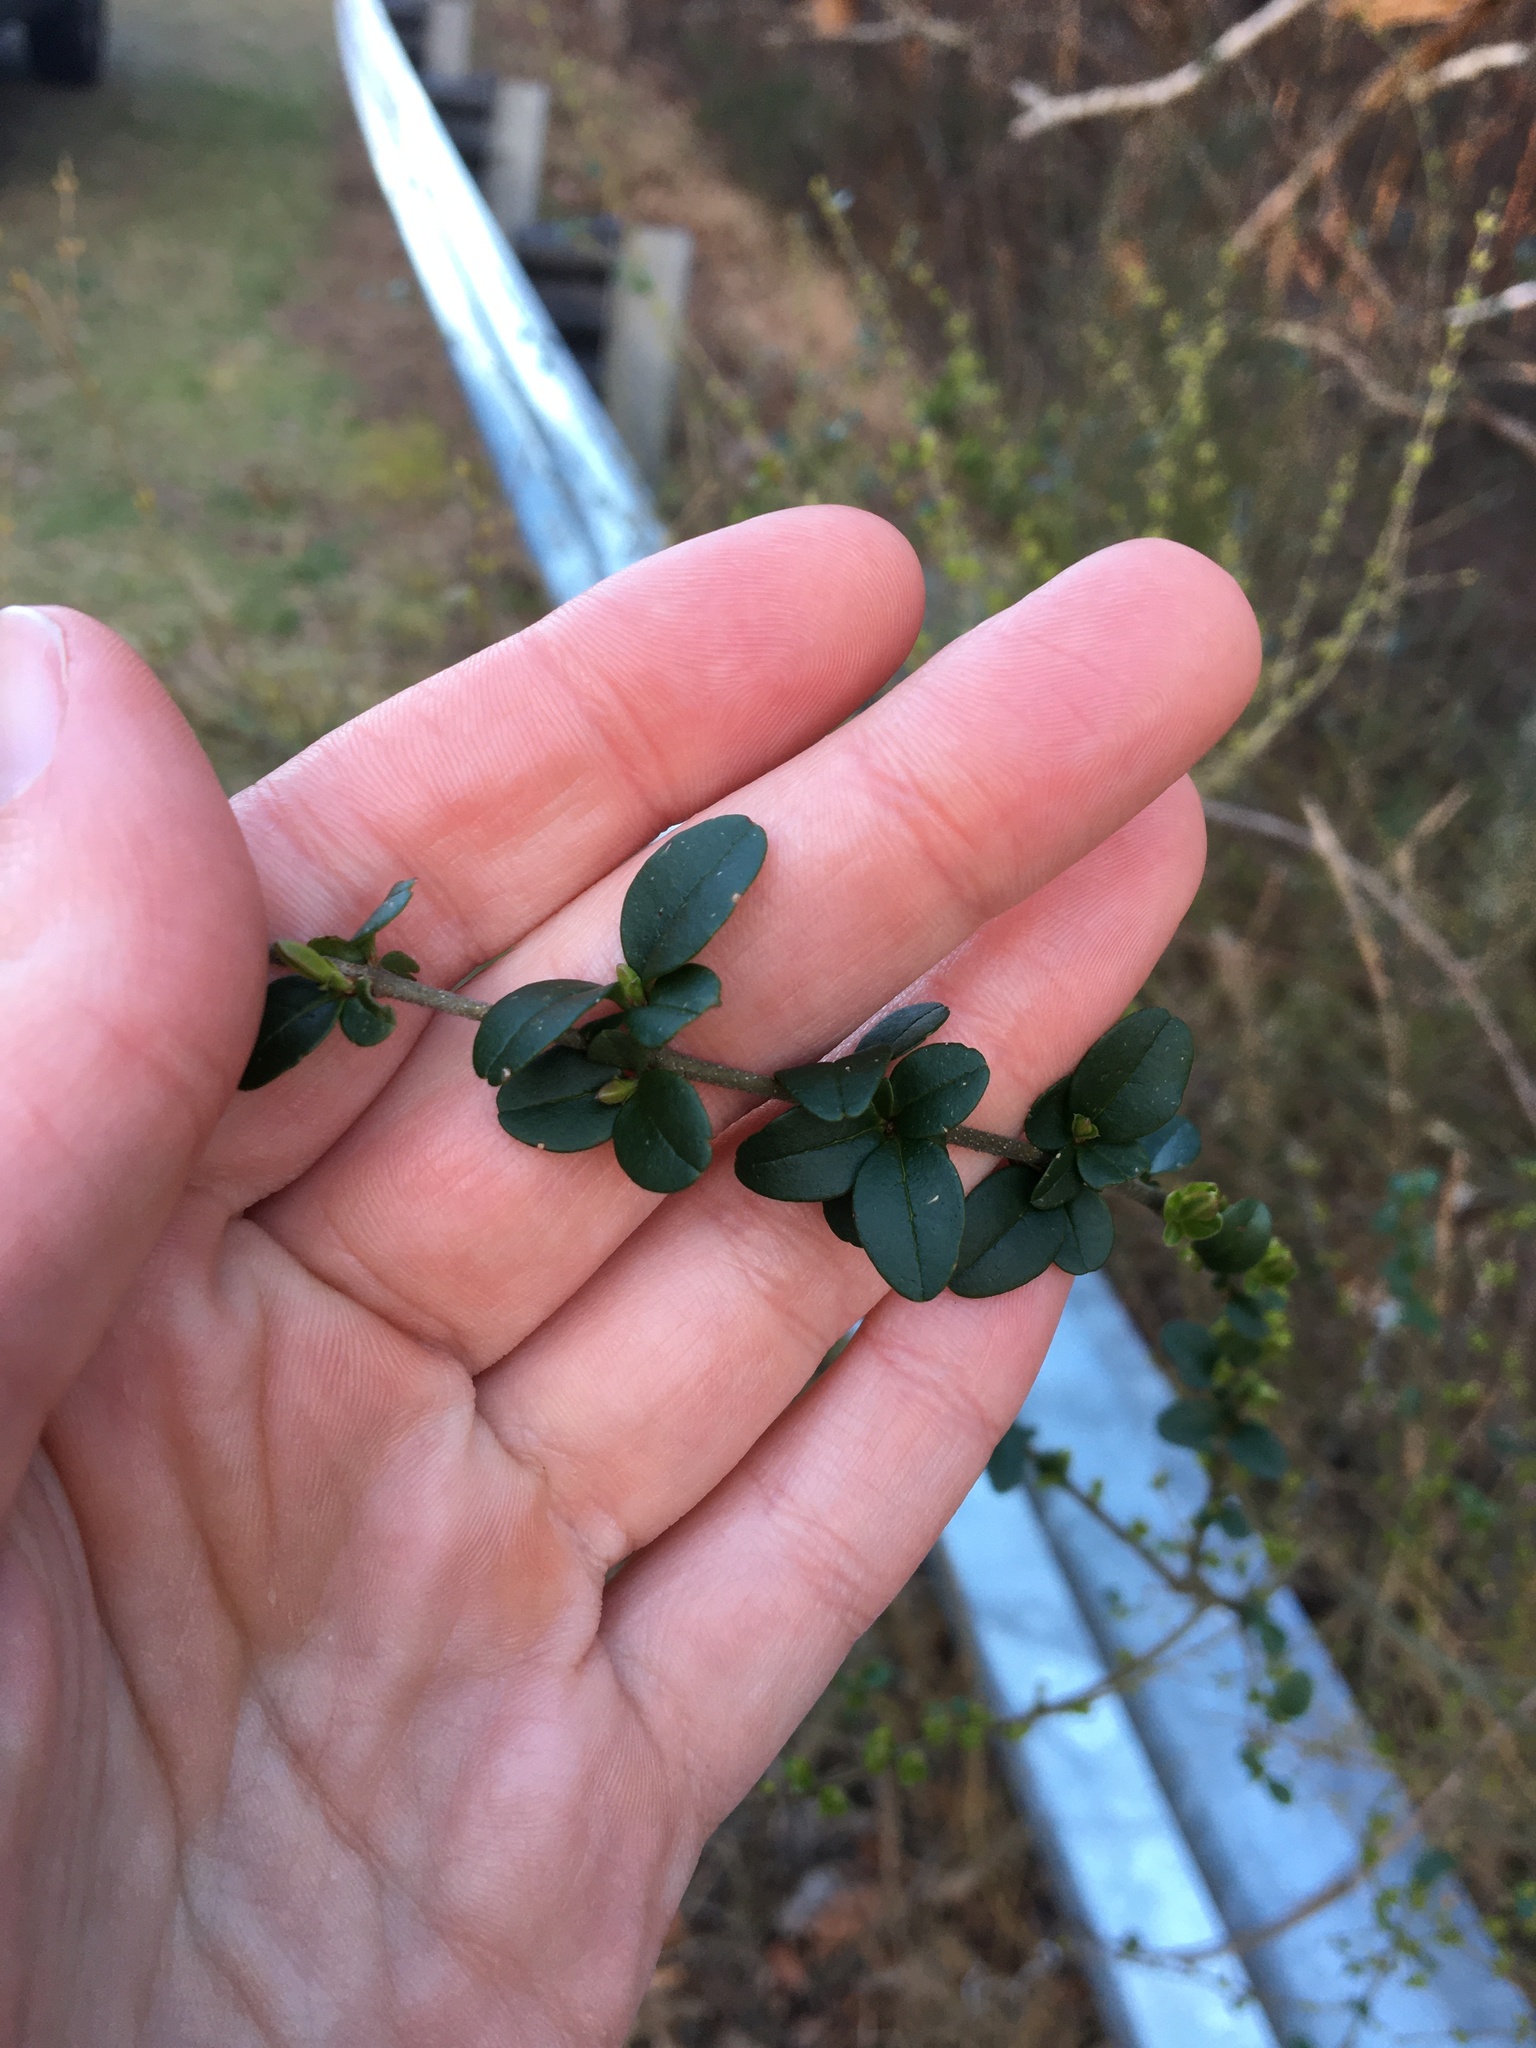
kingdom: Plantae
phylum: Tracheophyta
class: Magnoliopsida
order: Lamiales
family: Oleaceae
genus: Ligustrum
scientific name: Ligustrum sinense
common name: Chinese privet
